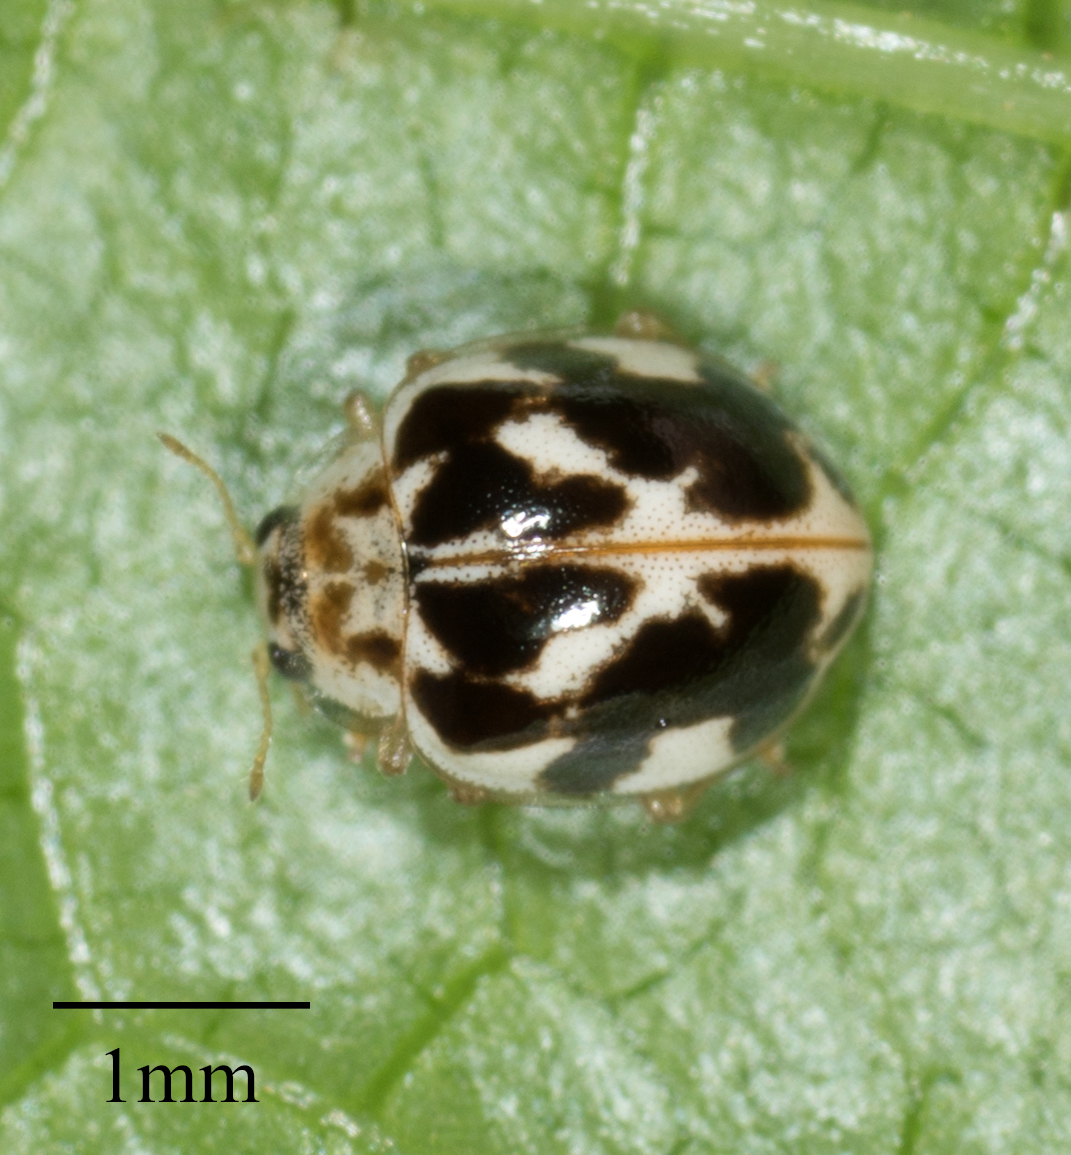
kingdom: Animalia
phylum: Arthropoda
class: Insecta
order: Coleoptera
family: Coccinellidae
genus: Psyllobora
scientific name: Psyllobora vigintimaculata
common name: Ladybird beetle
